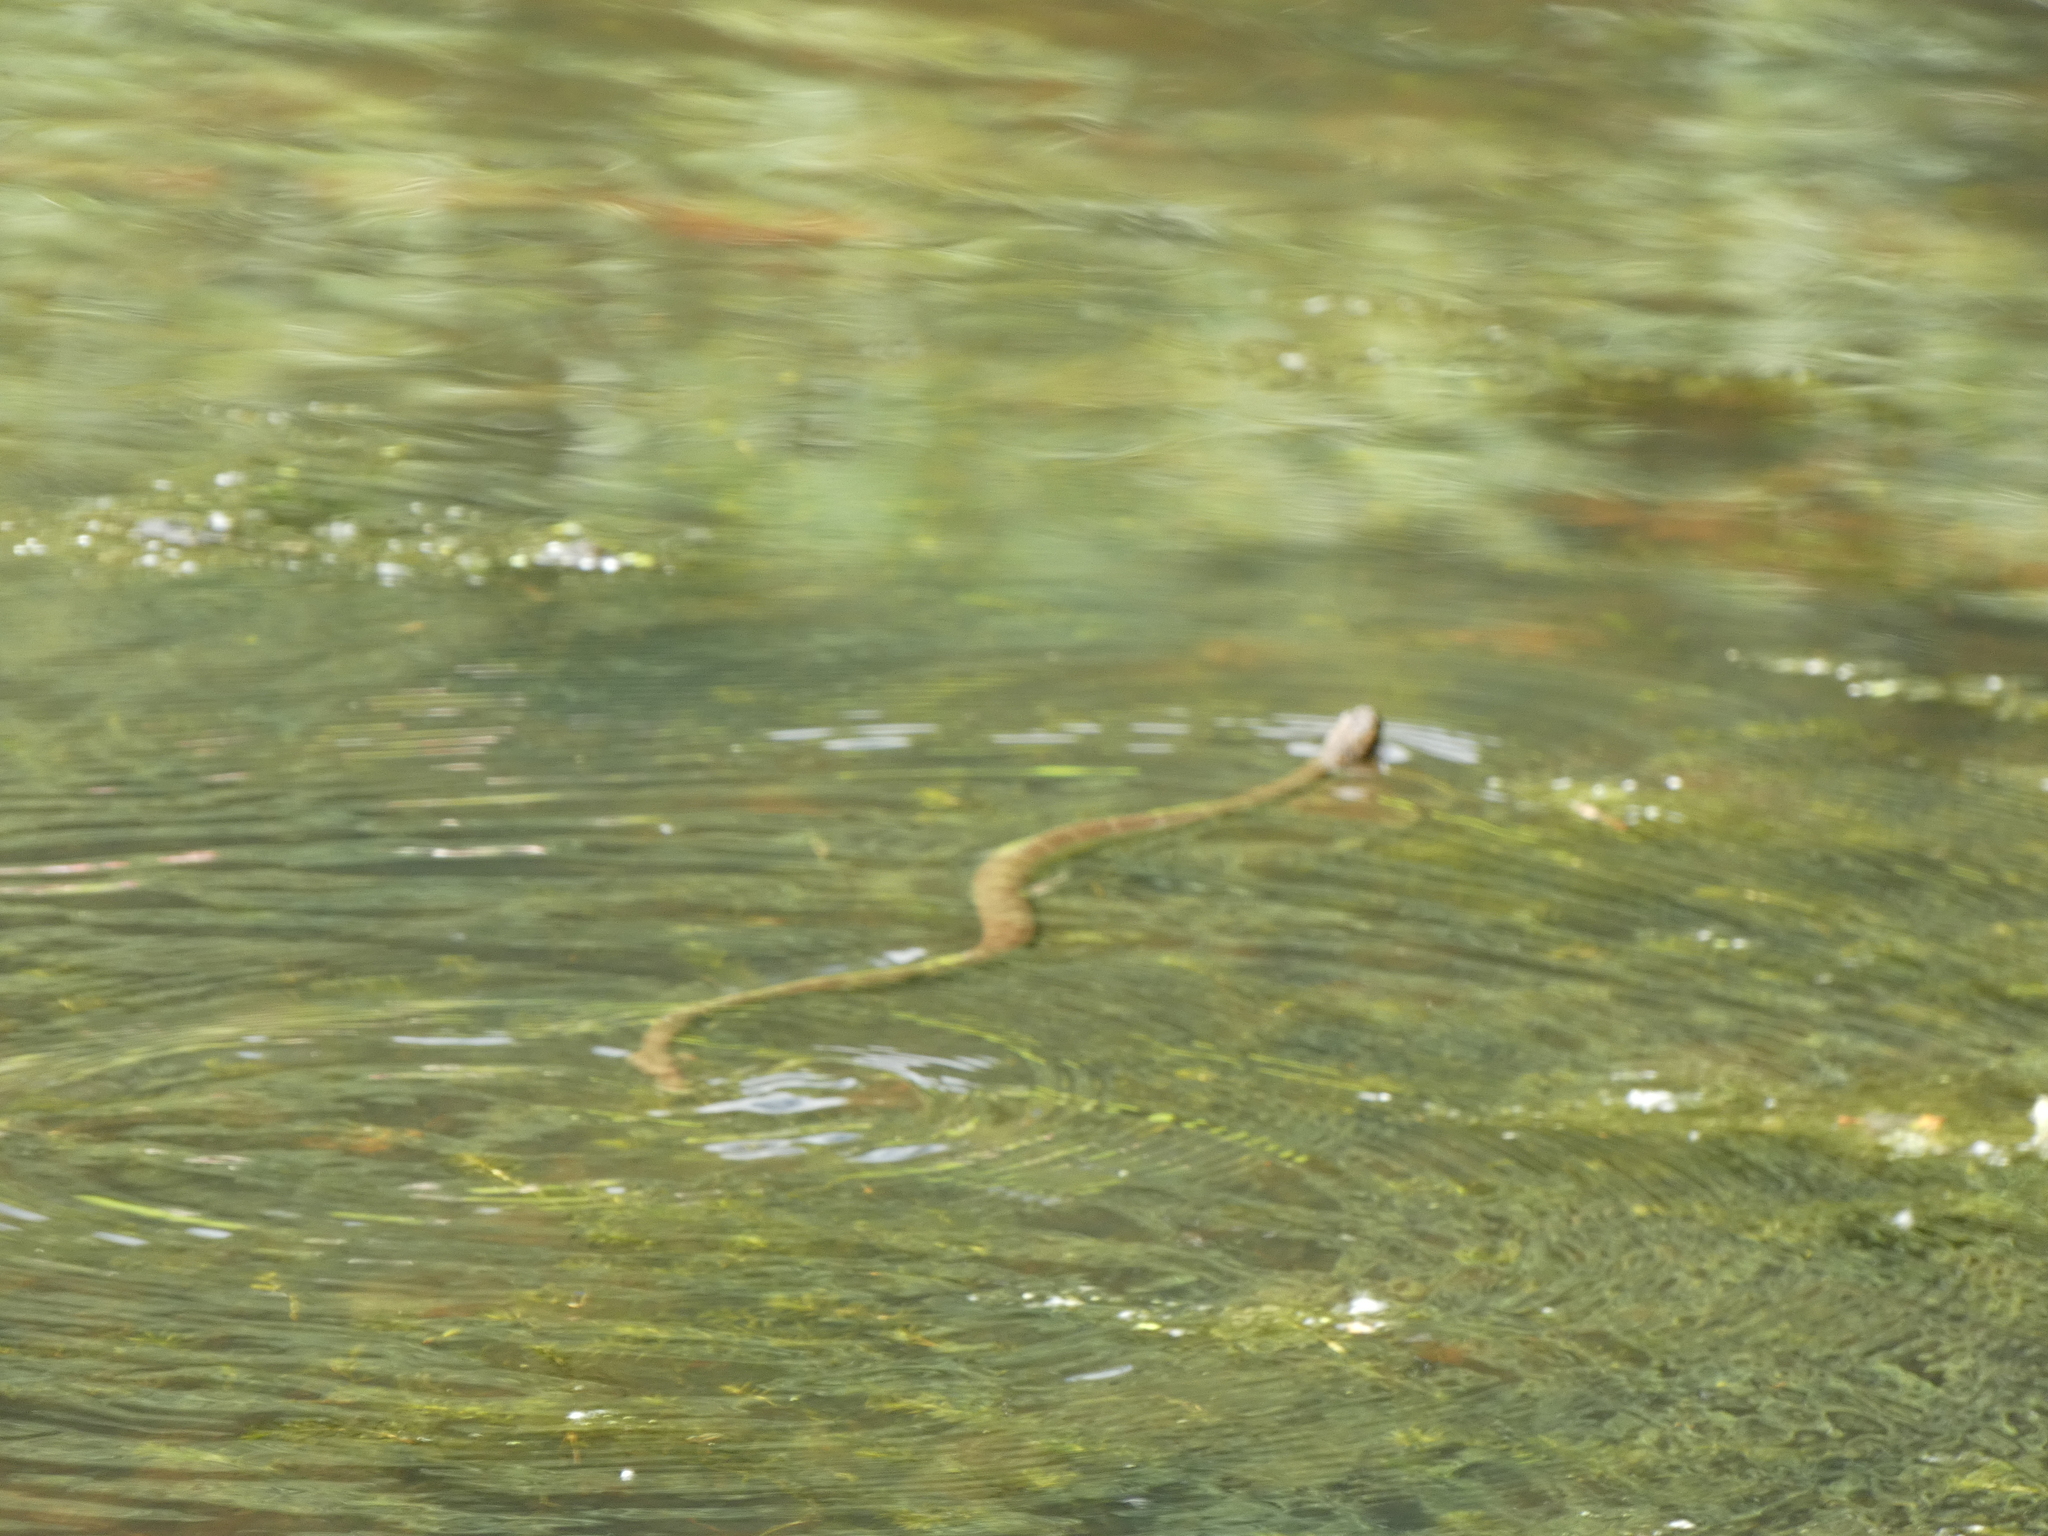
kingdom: Animalia
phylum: Chordata
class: Squamata
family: Colubridae
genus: Nerodia
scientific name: Nerodia sipedon
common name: Northern water snake
